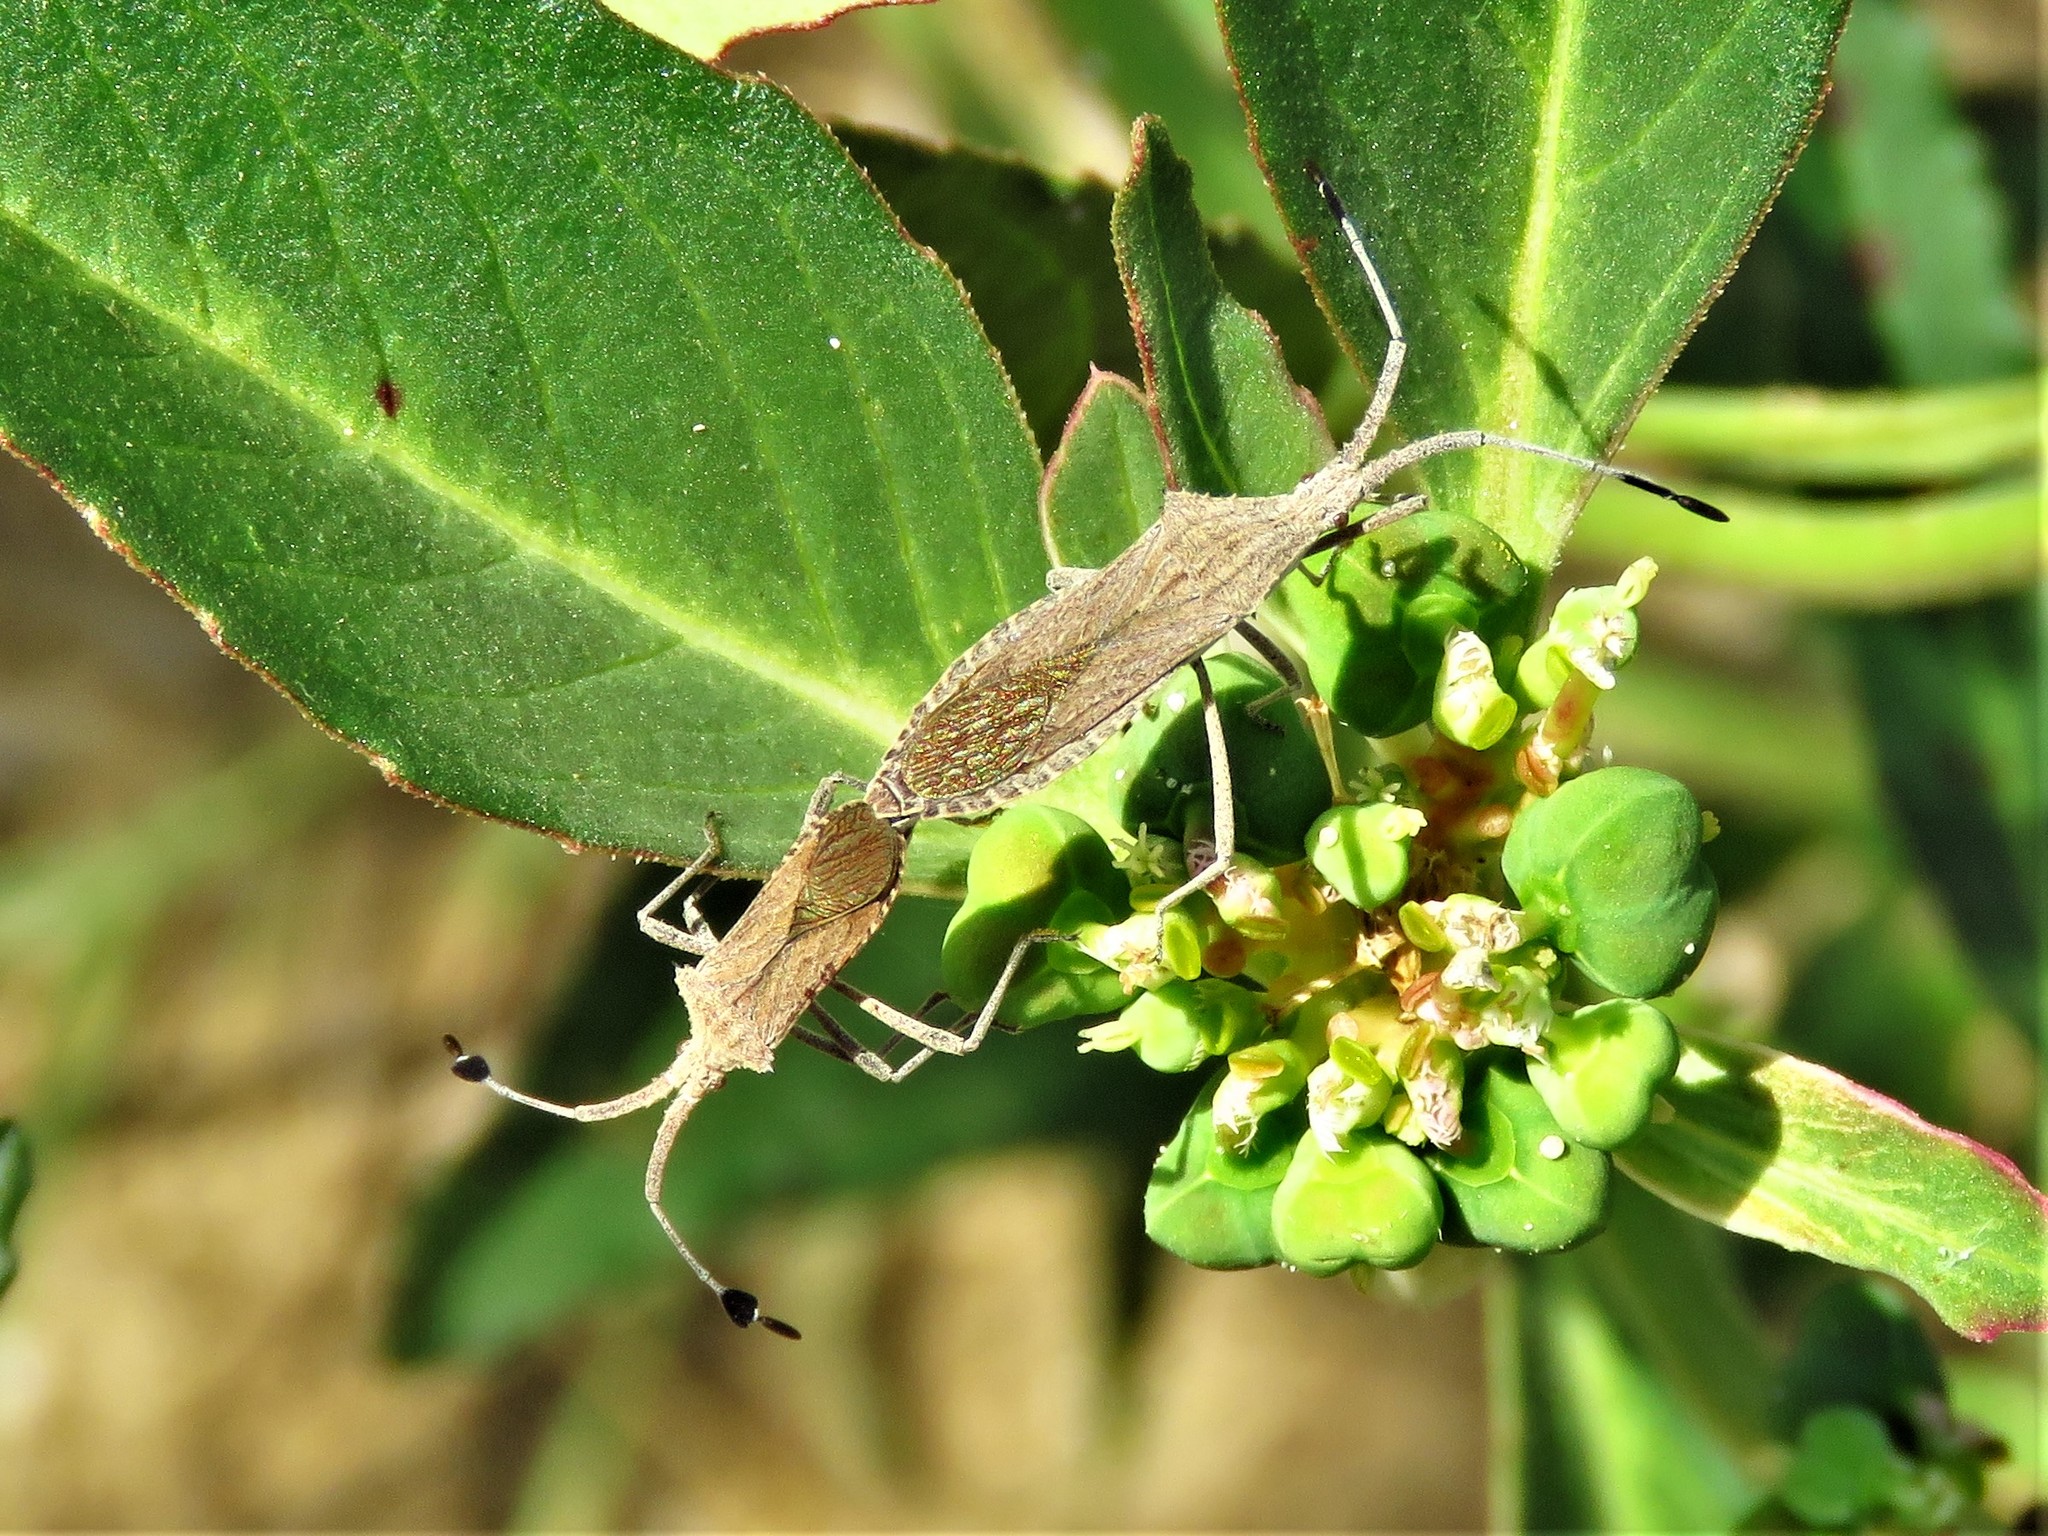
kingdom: Animalia
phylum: Arthropoda
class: Insecta
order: Hemiptera
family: Coreidae
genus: Chariesterus
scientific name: Chariesterus antennator
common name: Flat horned coreid
